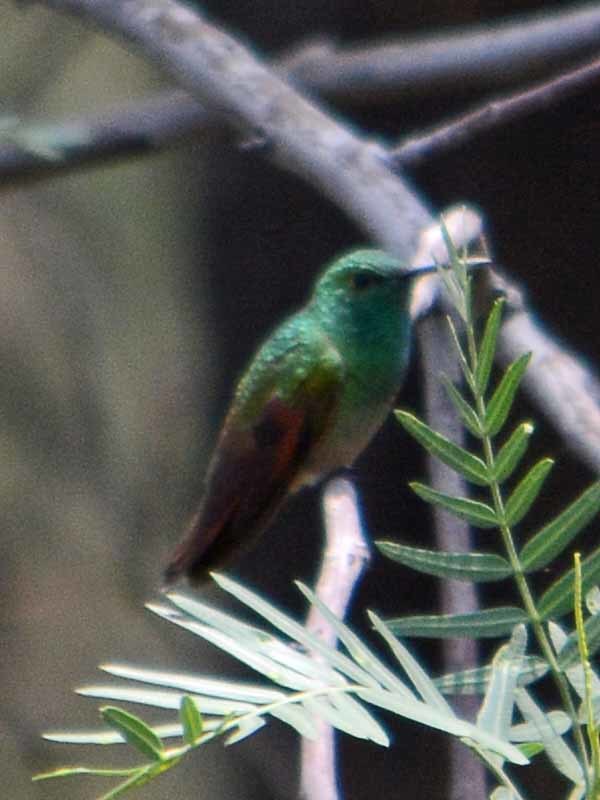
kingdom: Animalia
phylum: Chordata
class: Aves
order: Apodiformes
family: Trochilidae
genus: Saucerottia
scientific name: Saucerottia beryllina
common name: Berylline hummingbird
